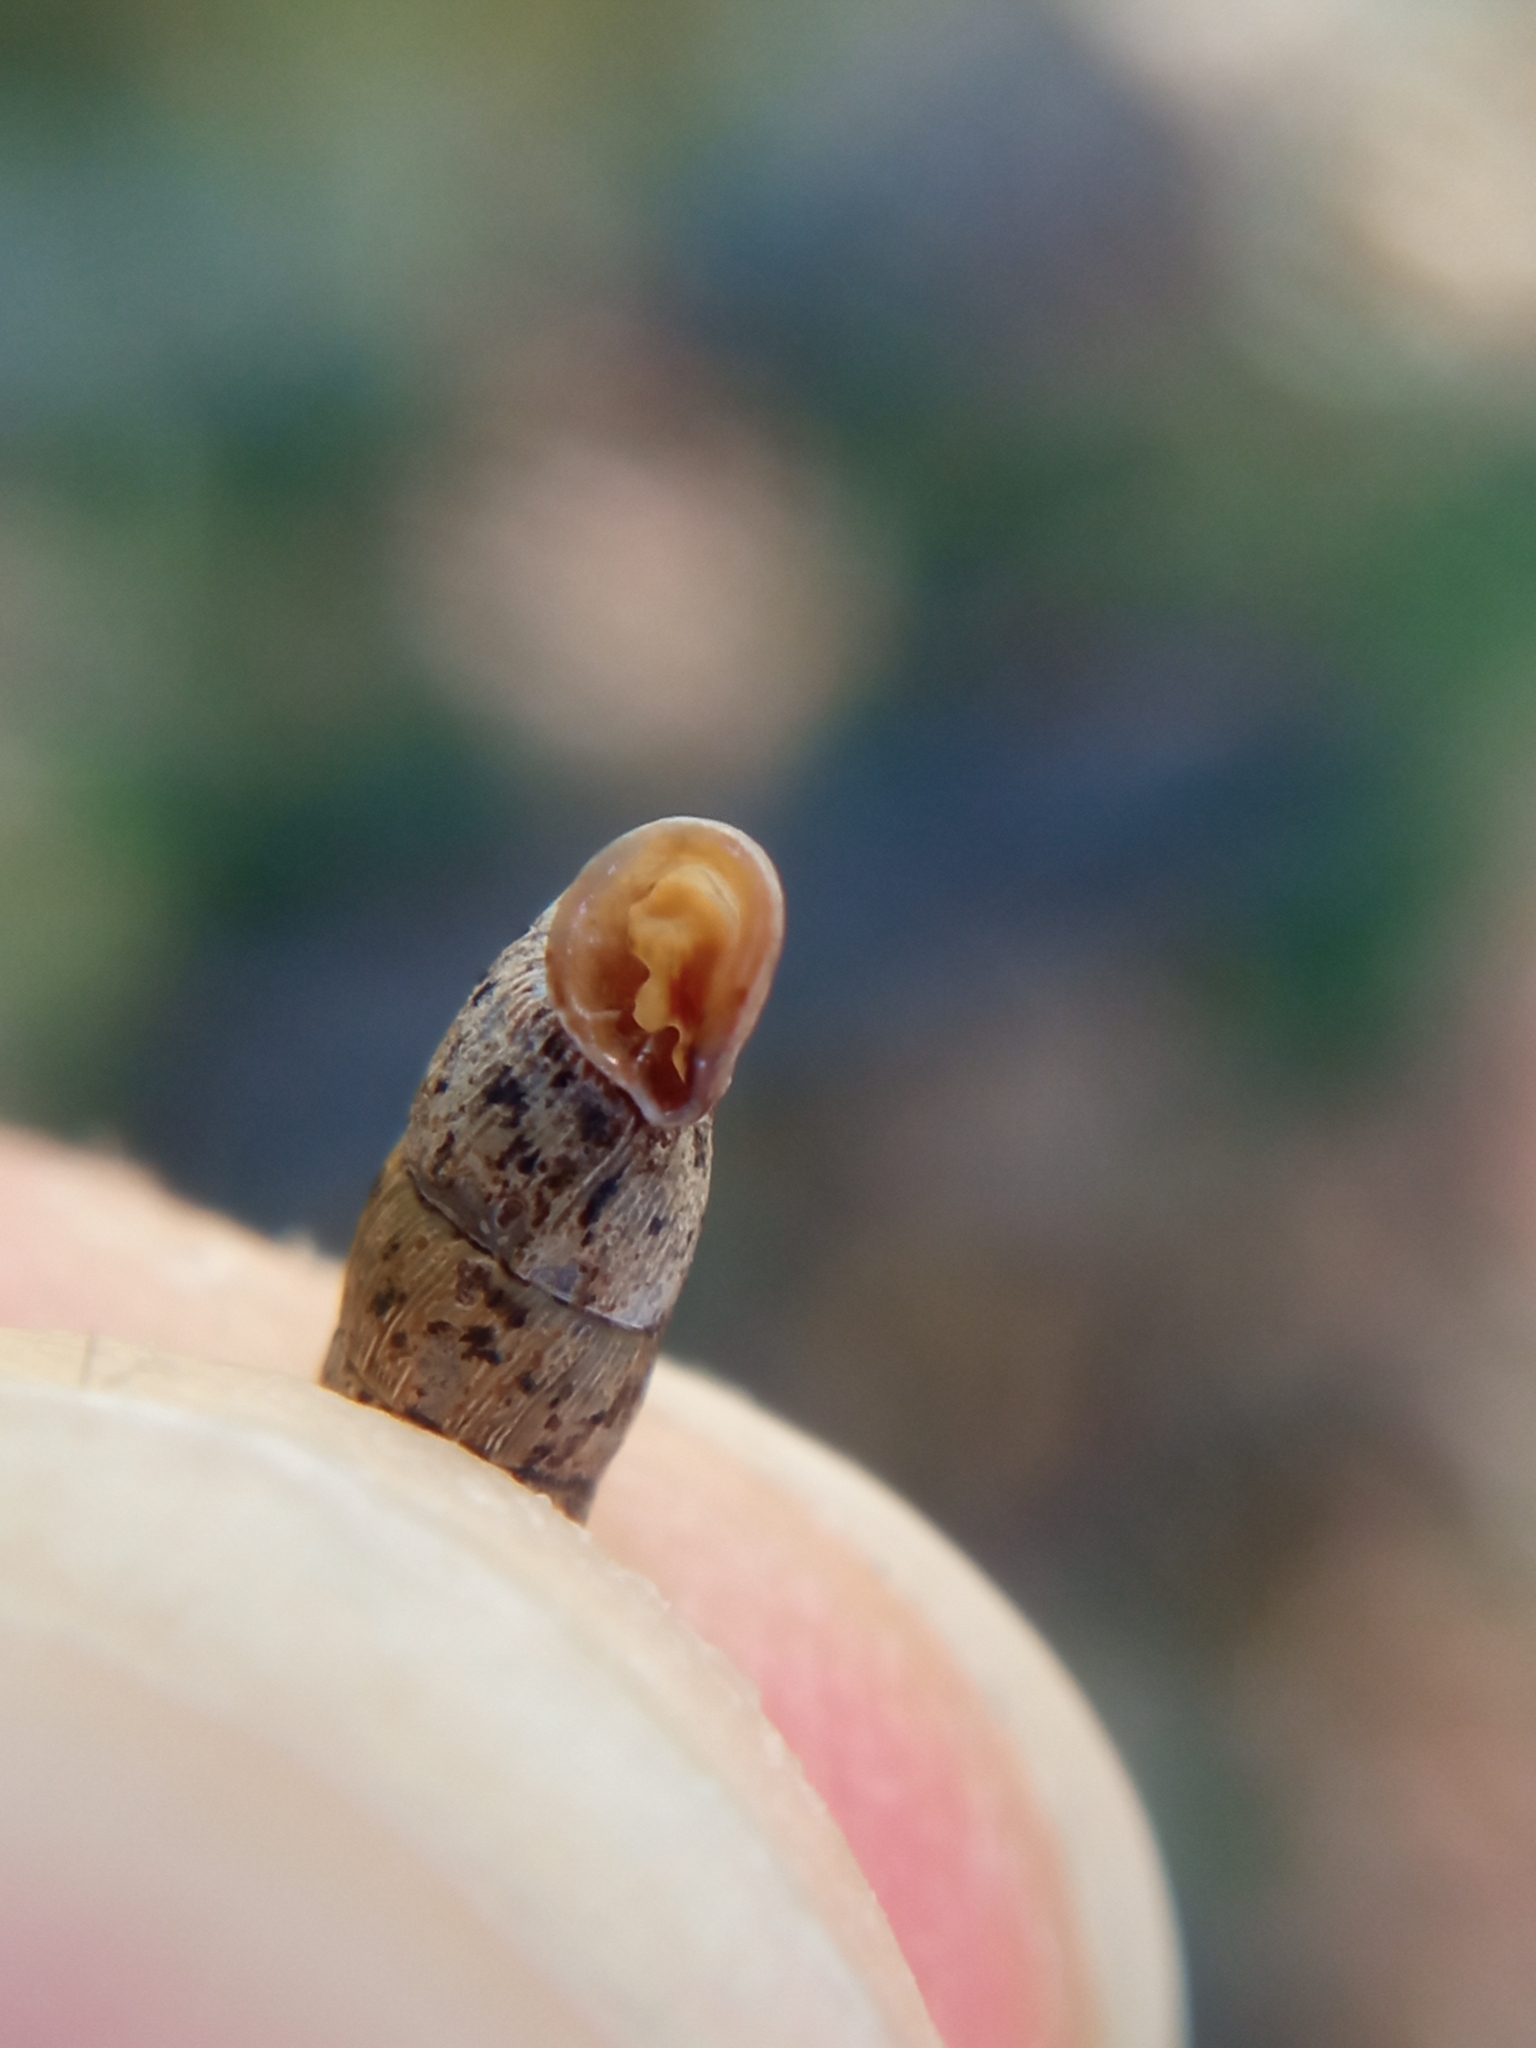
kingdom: Animalia
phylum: Mollusca
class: Gastropoda
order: Stylommatophora
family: Clausiliidae
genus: Clausilia
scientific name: Clausilia bidentata
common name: Two-toothed door snail
